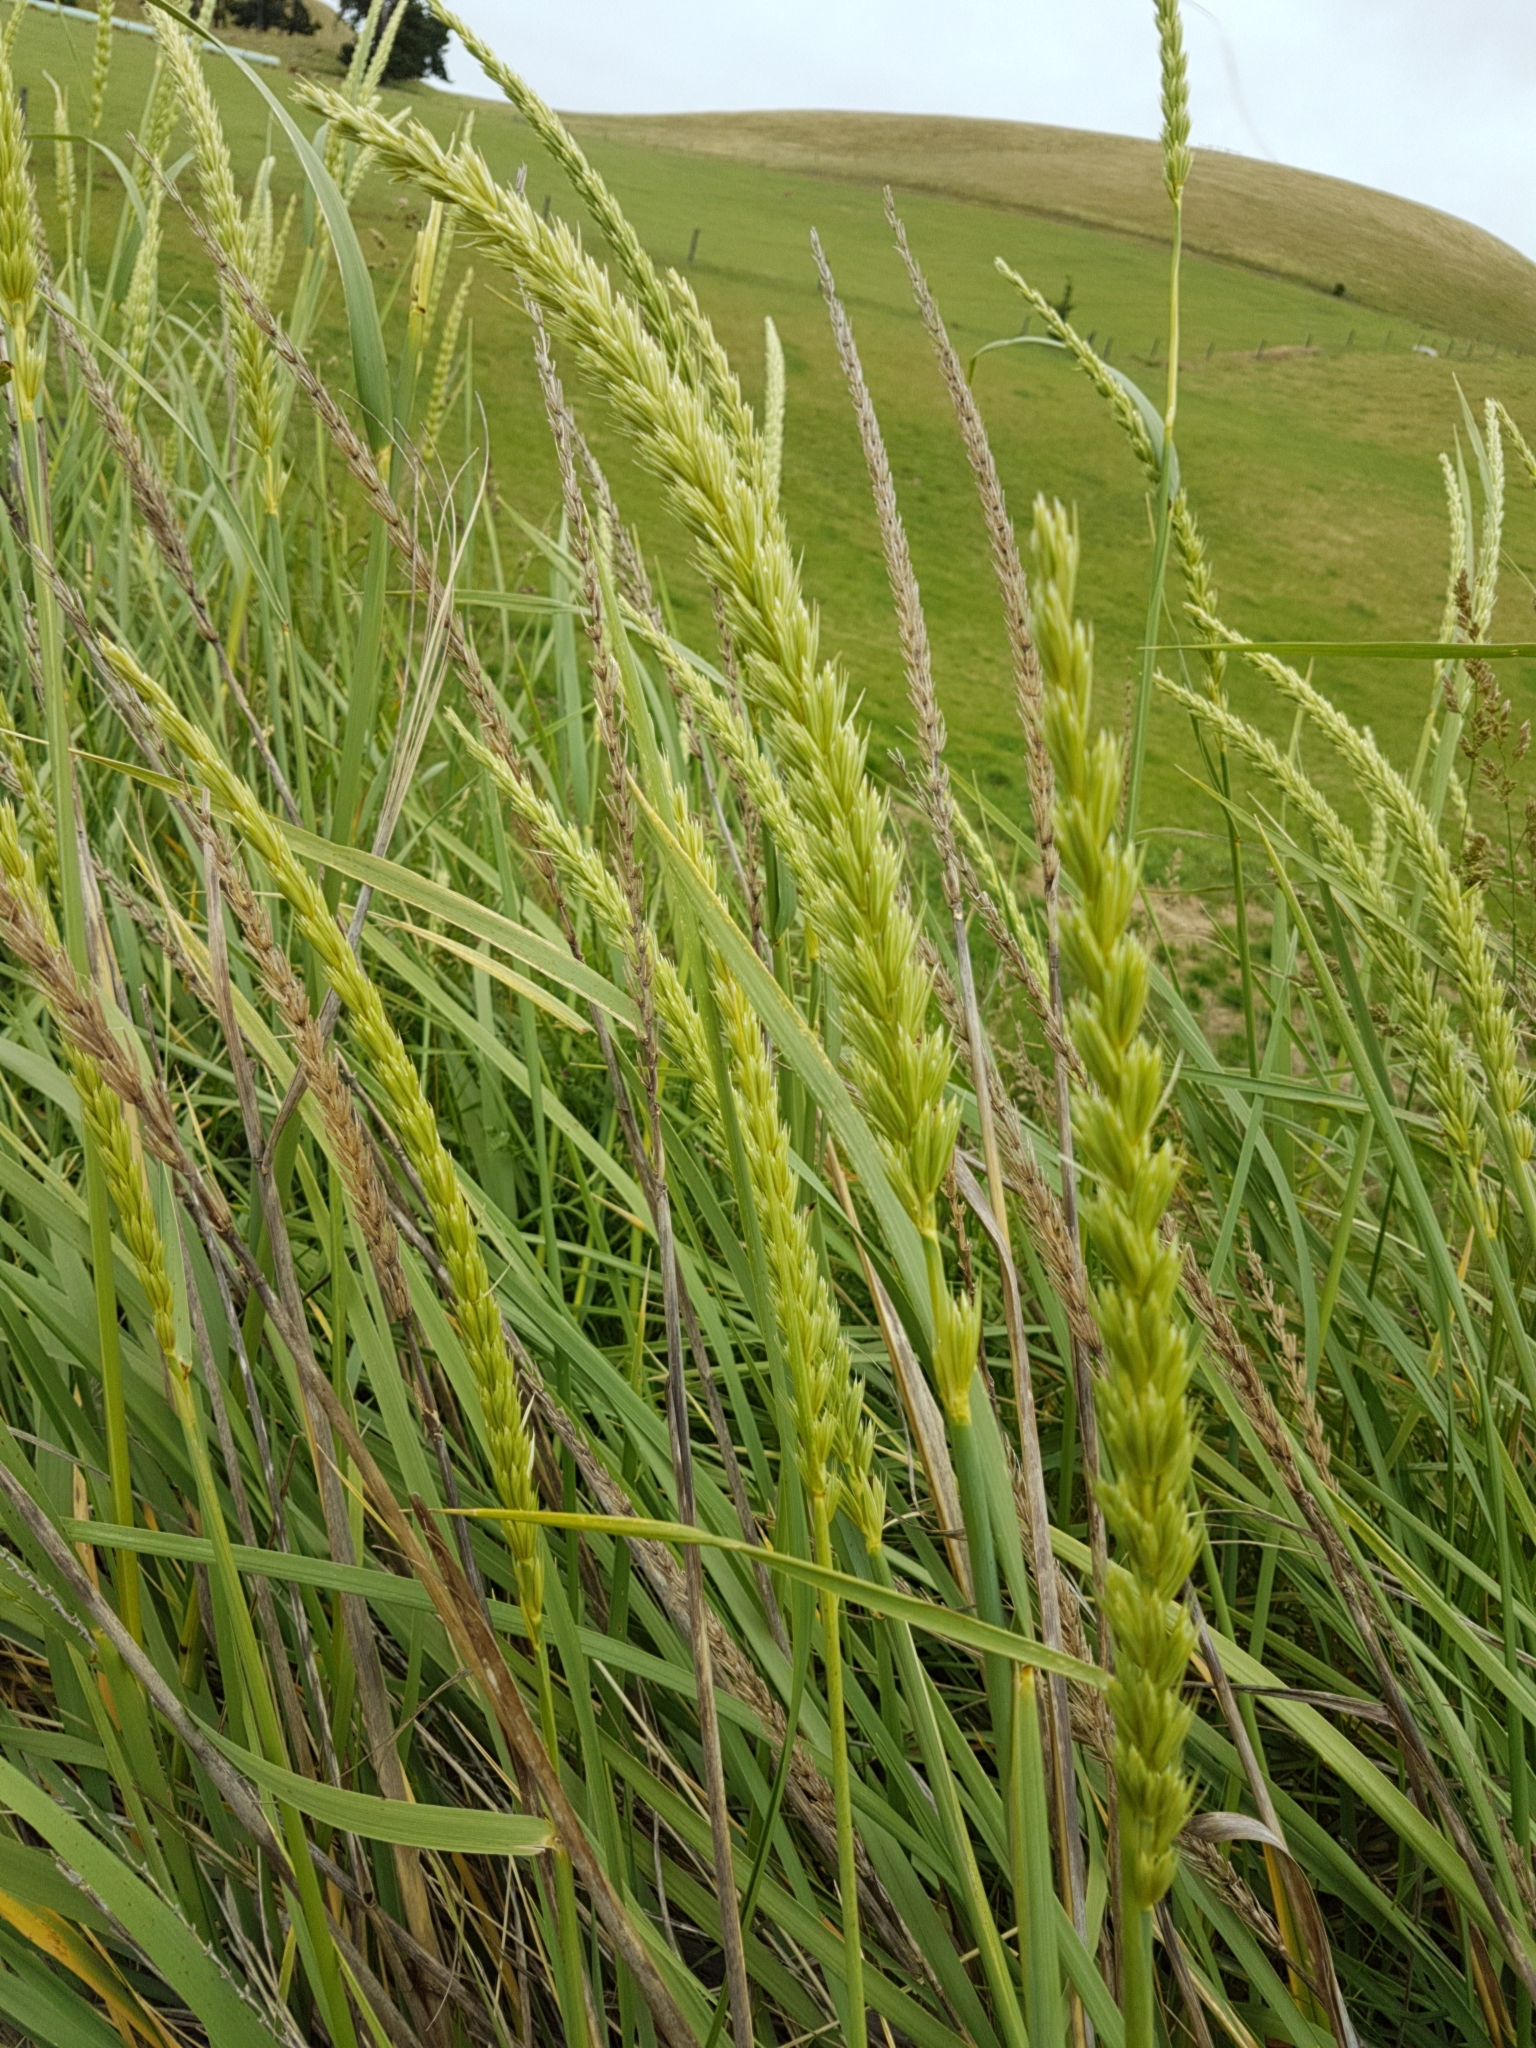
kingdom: Plantae
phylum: Tracheophyta
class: Liliopsida
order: Poales
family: Poaceae
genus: Leymus
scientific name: Leymus racemosus
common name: Mammoth wildrye
